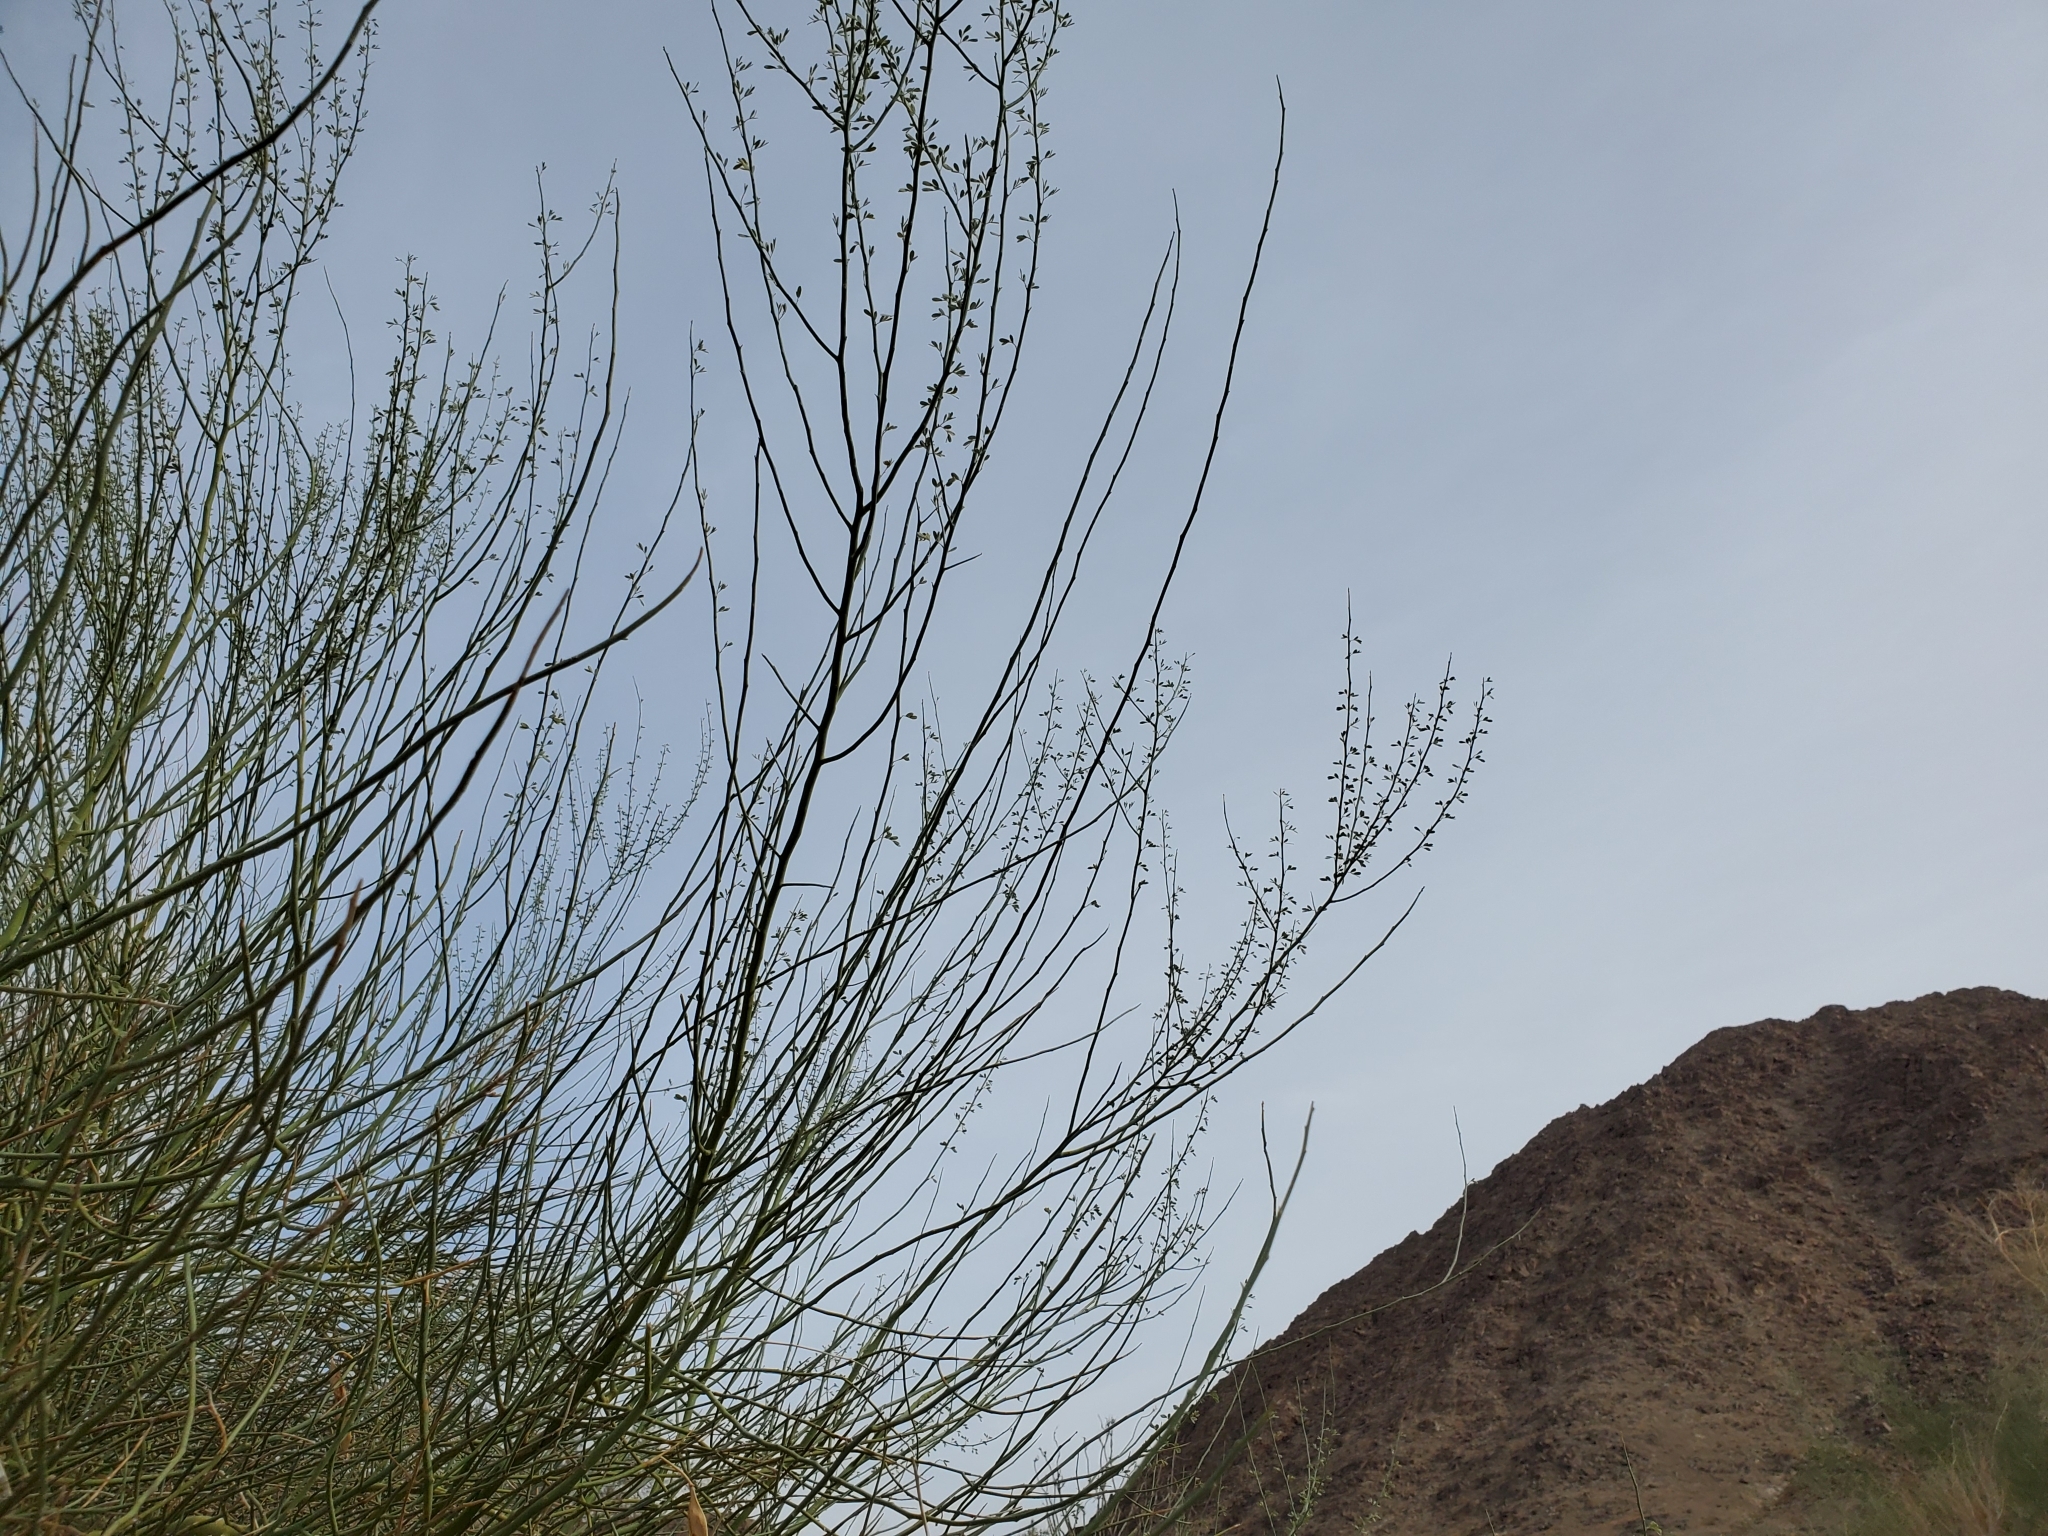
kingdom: Plantae
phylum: Tracheophyta
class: Magnoliopsida
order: Fabales
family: Fabaceae
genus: Parkinsonia
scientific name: Parkinsonia florida
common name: Blue paloverde
